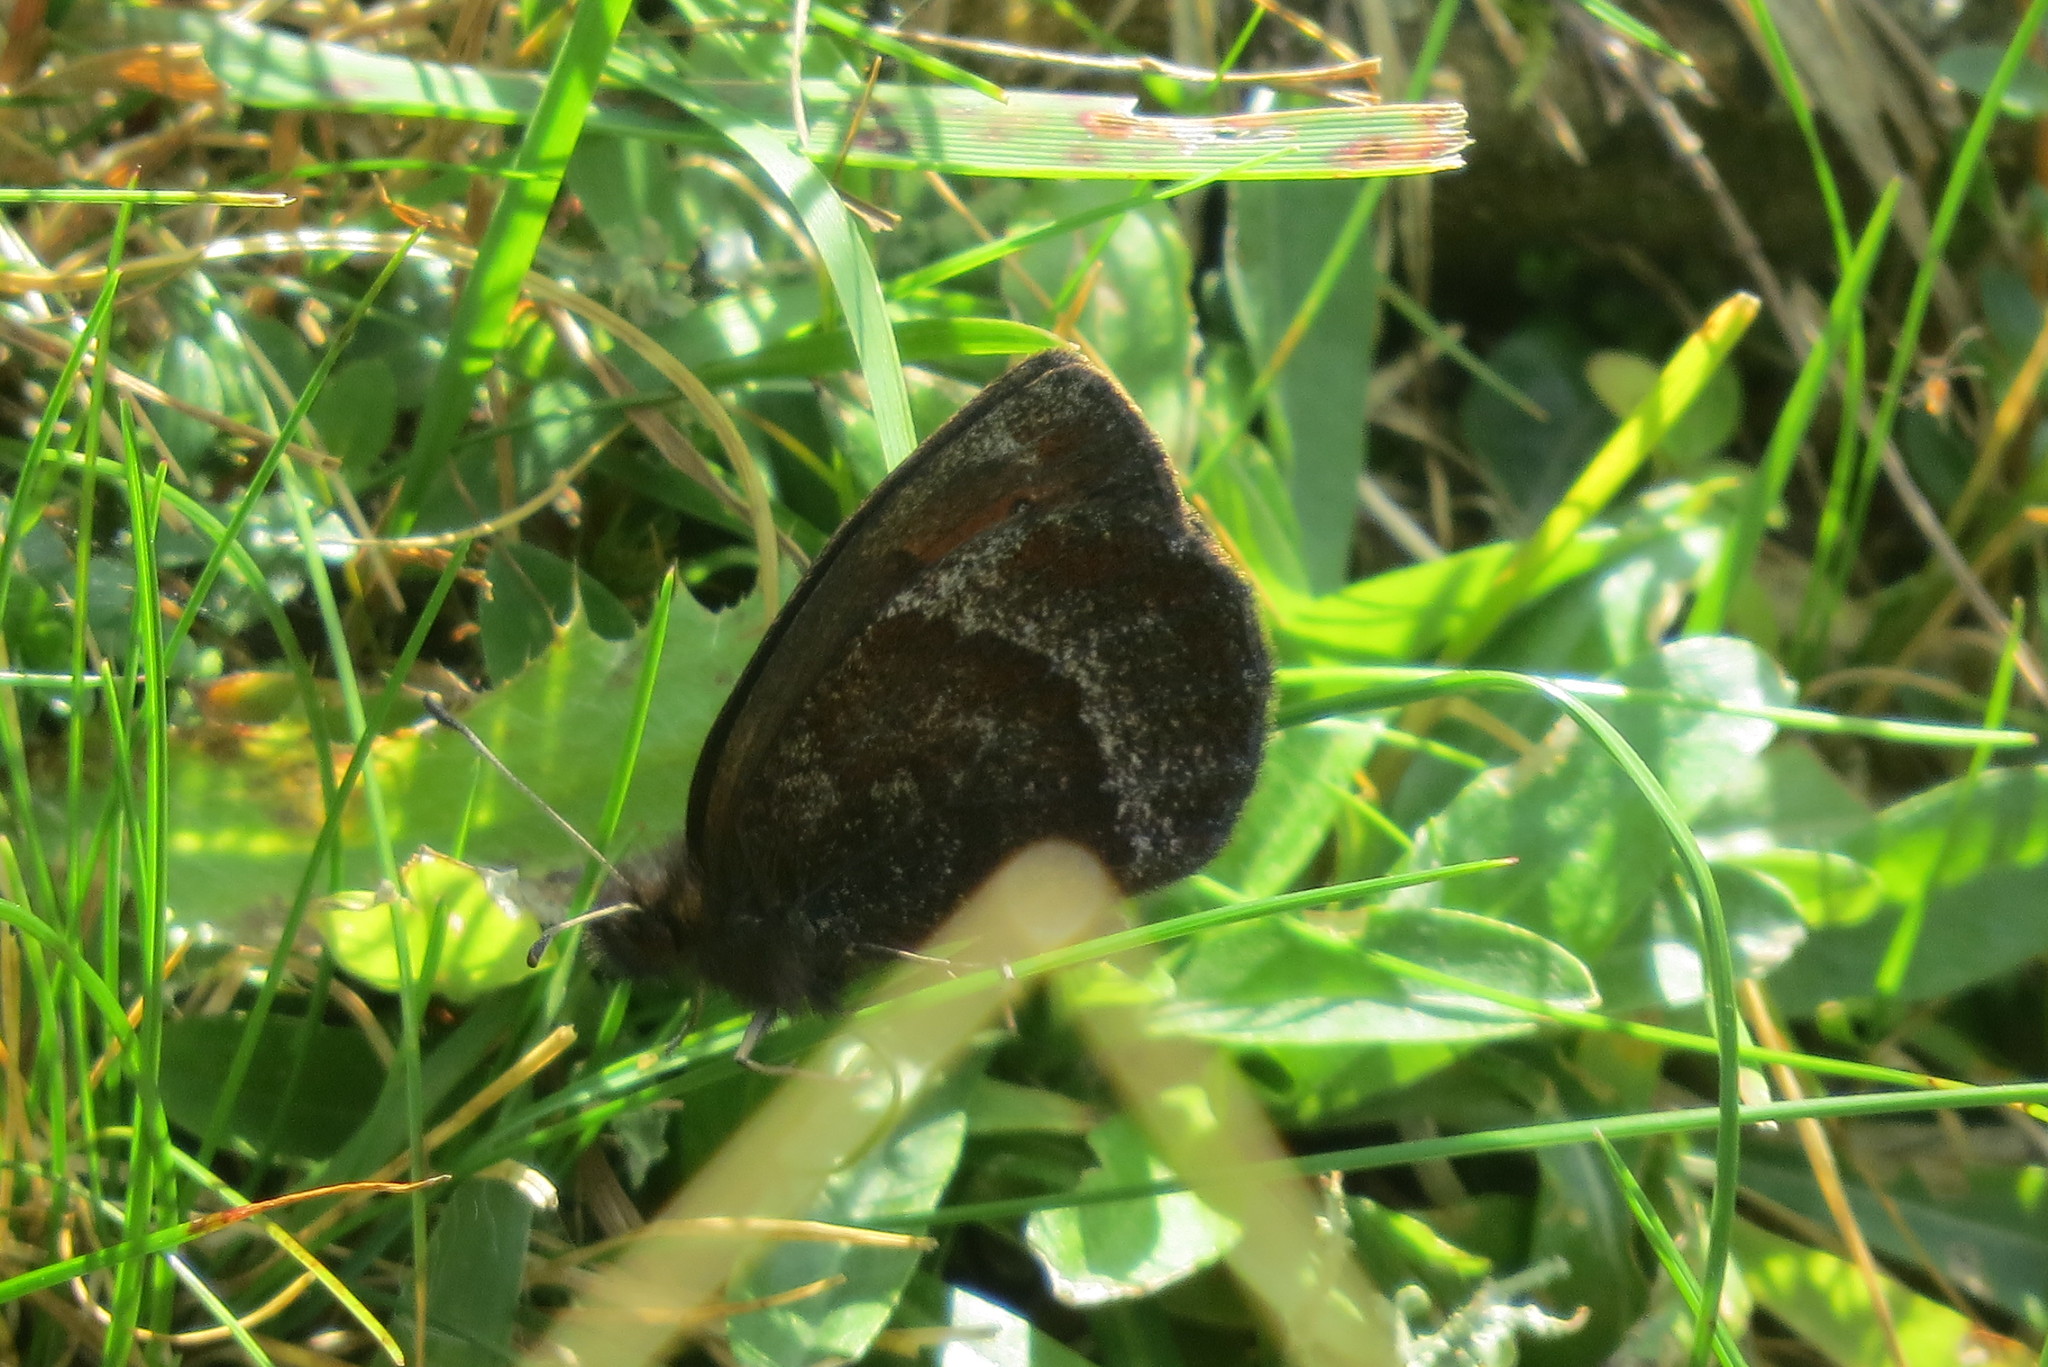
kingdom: Animalia
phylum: Arthropoda
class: Insecta
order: Lepidoptera
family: Nymphalidae
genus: Erebia
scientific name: Erebia pronoe
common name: Water ringlet
